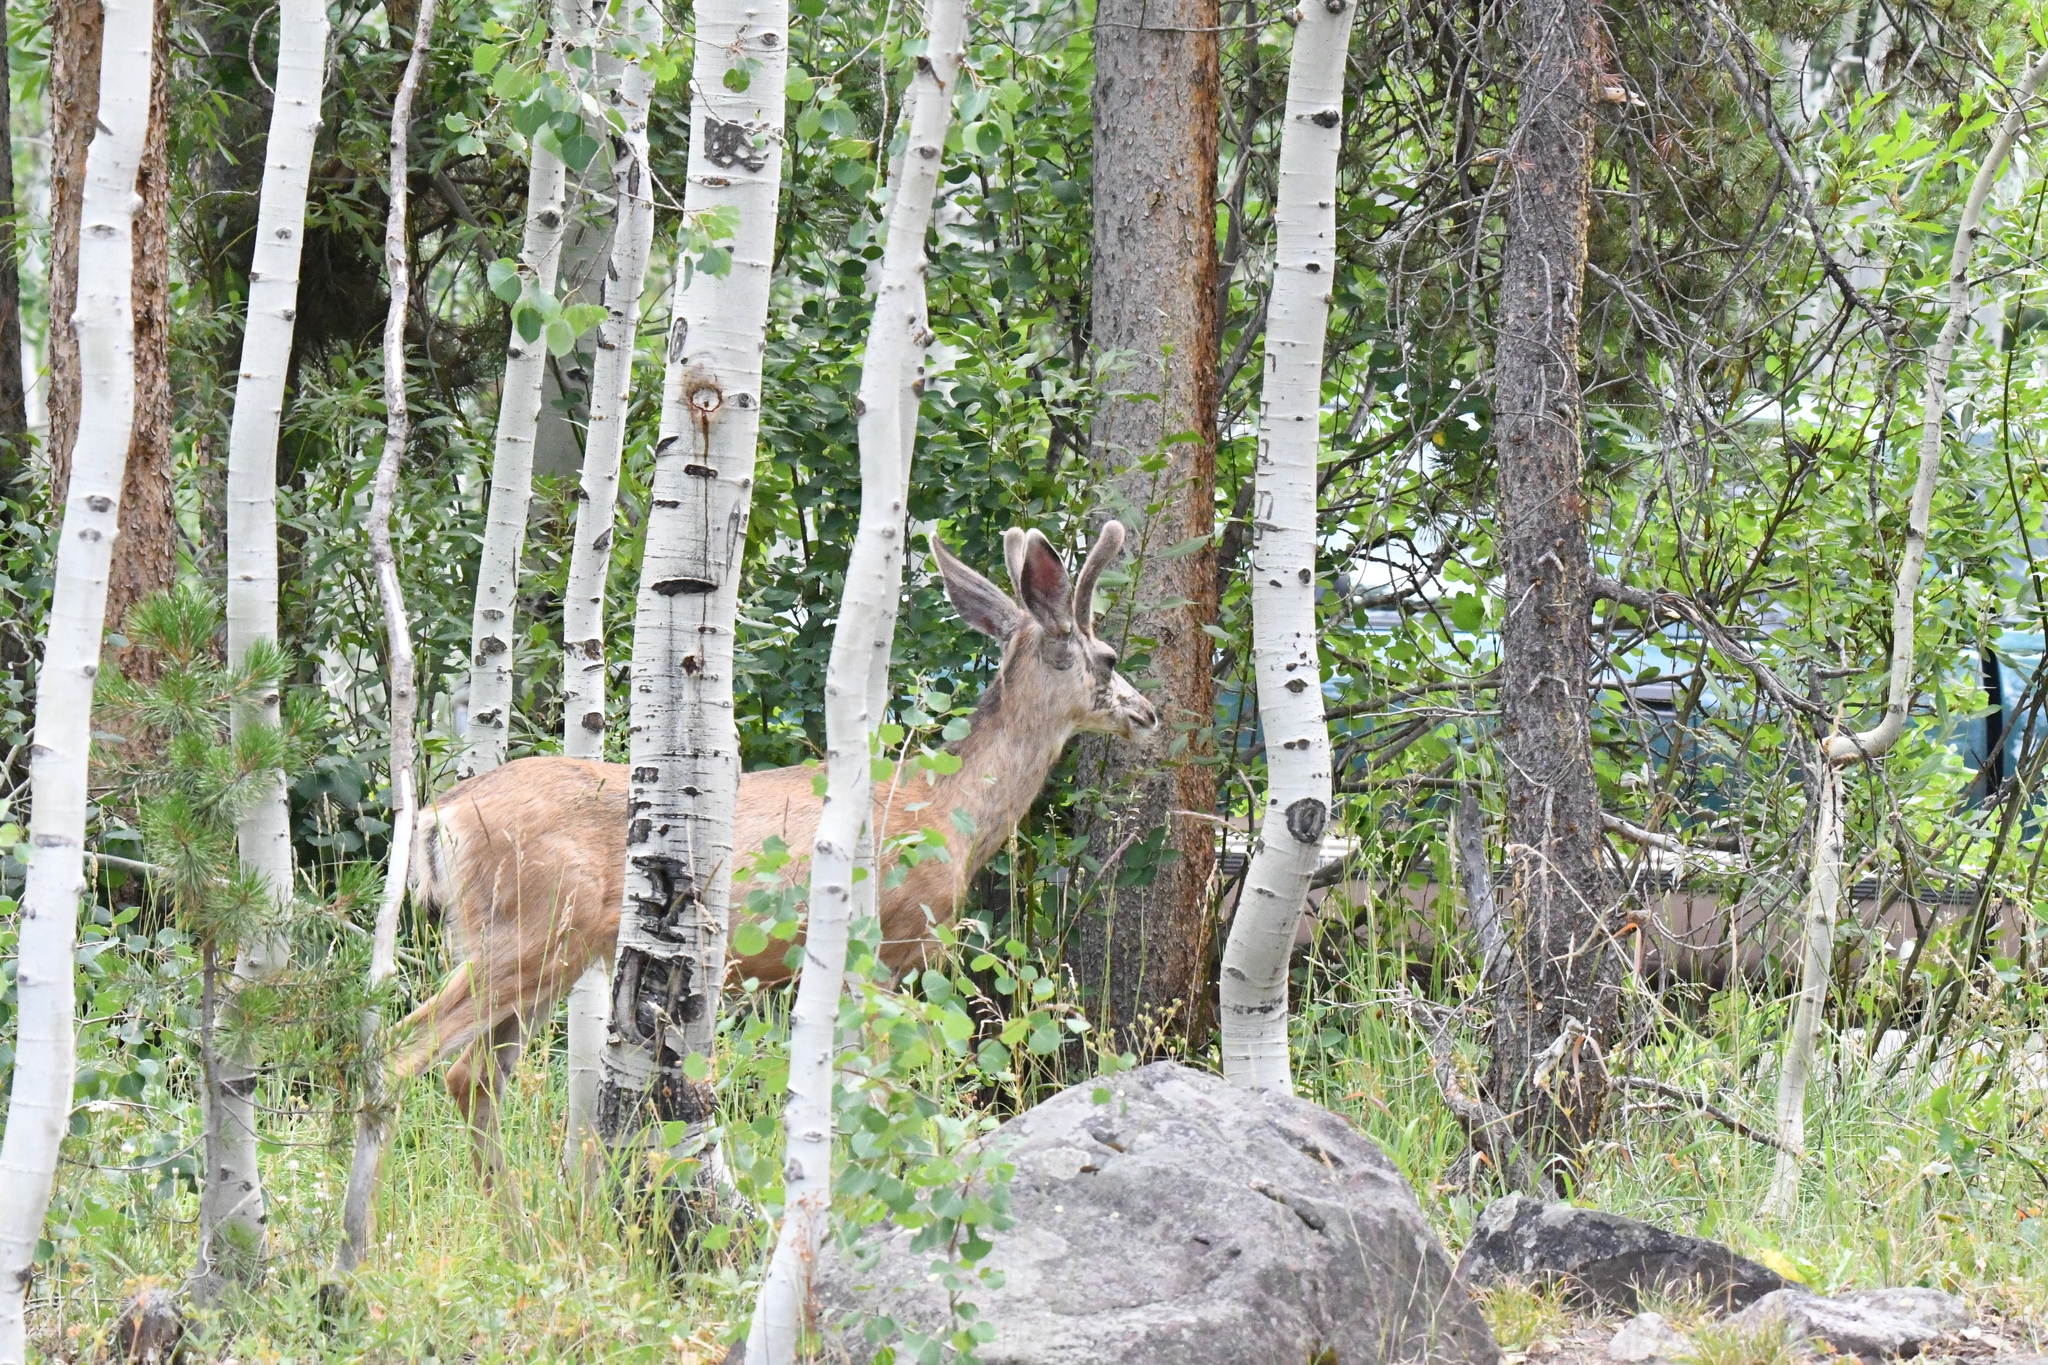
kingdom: Animalia
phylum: Chordata
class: Mammalia
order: Artiodactyla
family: Cervidae
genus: Odocoileus
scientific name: Odocoileus hemionus
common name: Mule deer
